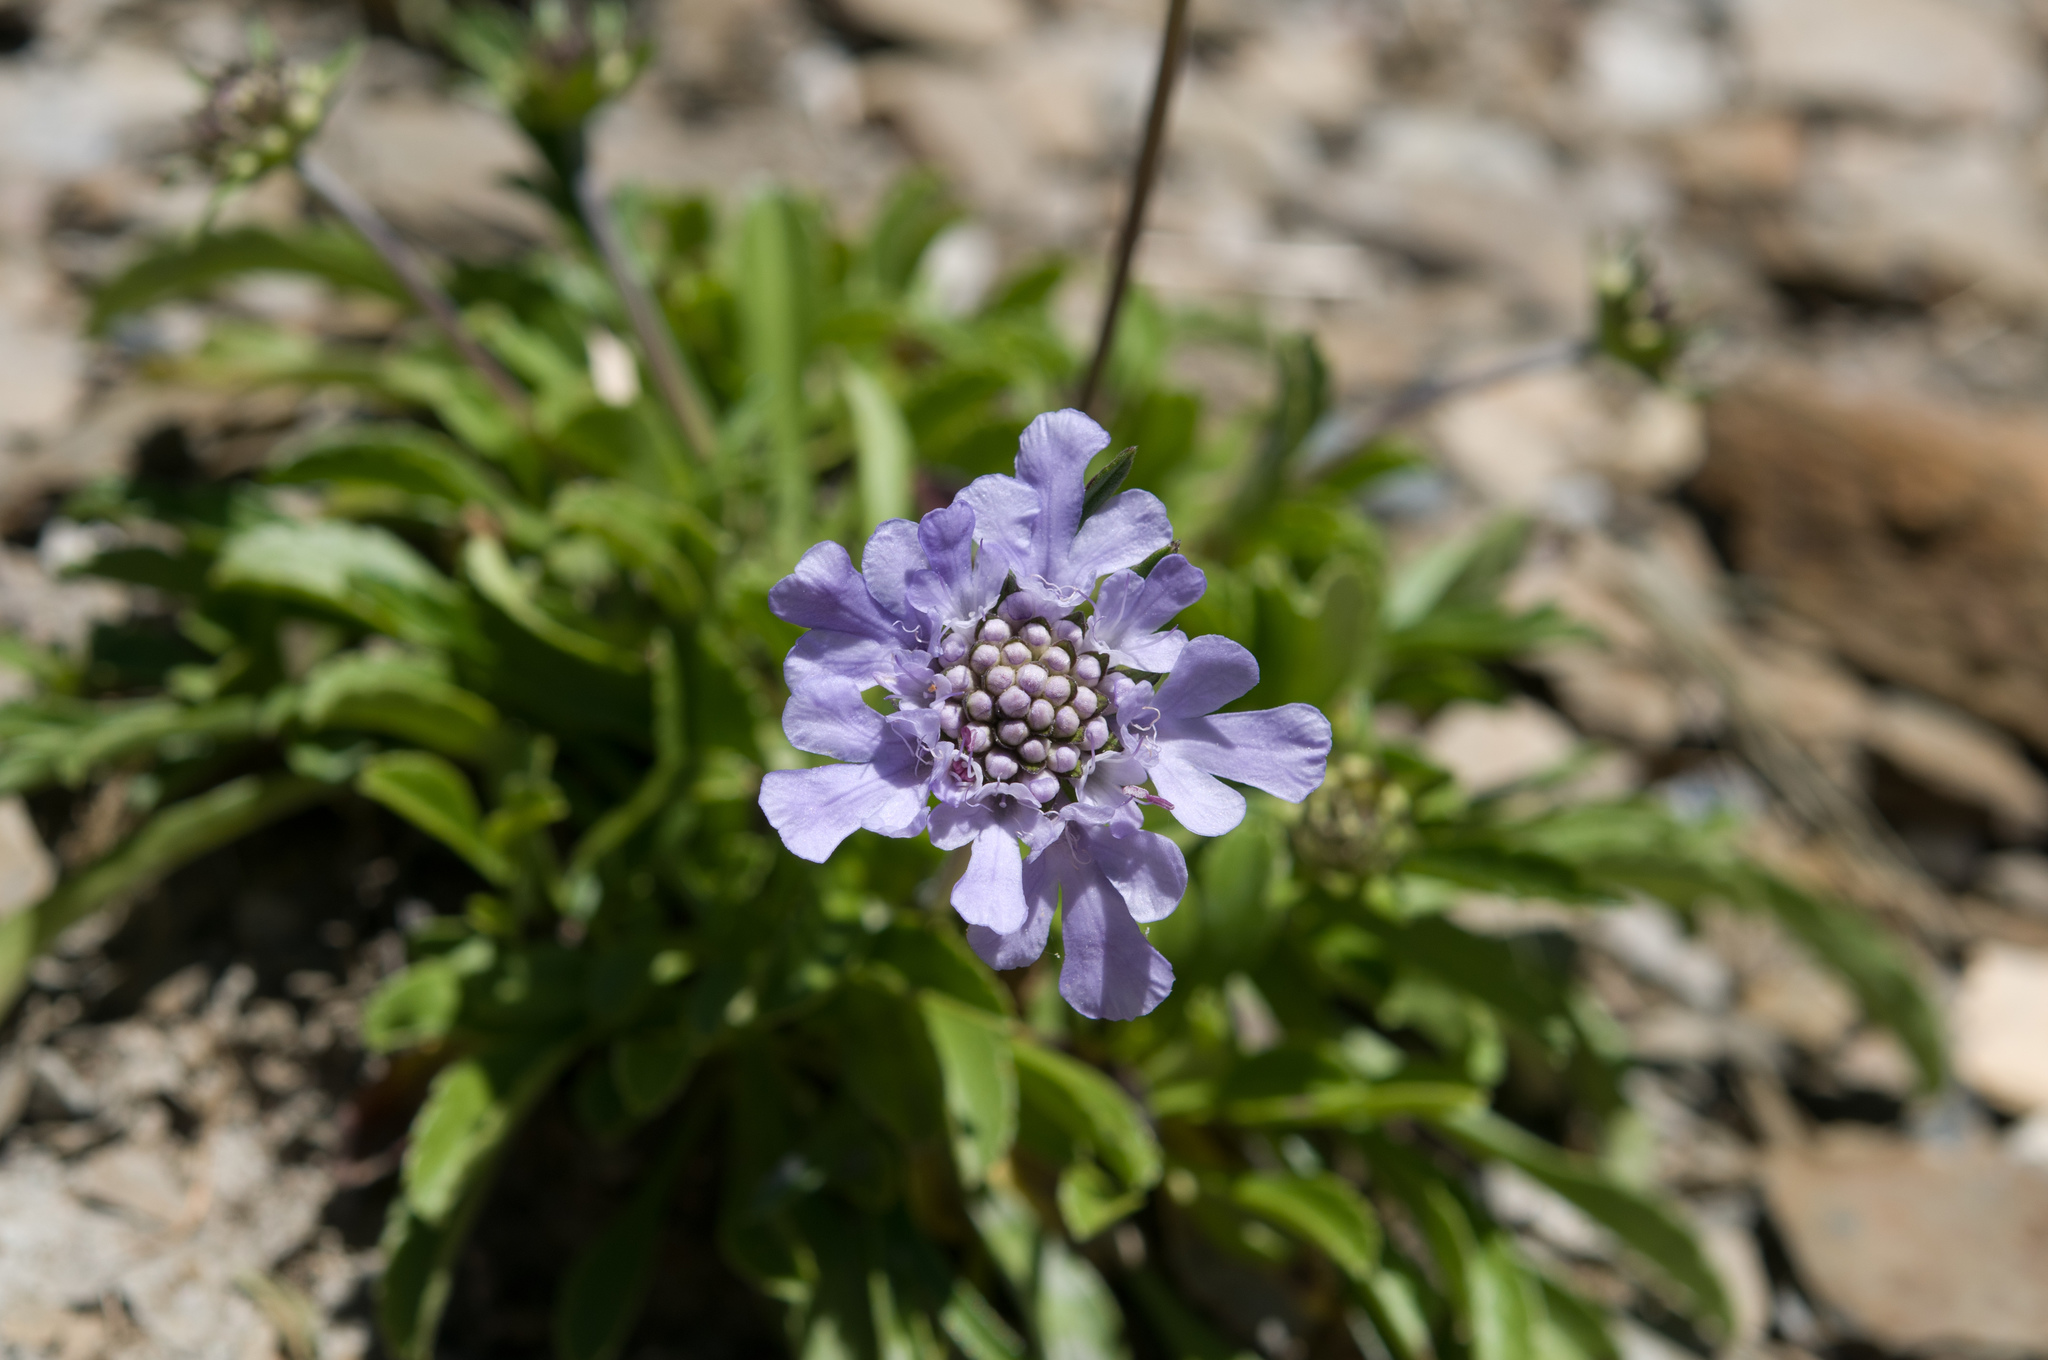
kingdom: Plantae
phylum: Tracheophyta
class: Magnoliopsida
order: Dipsacales
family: Caprifoliaceae
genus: Scabiosa
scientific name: Scabiosa lacerifolia
